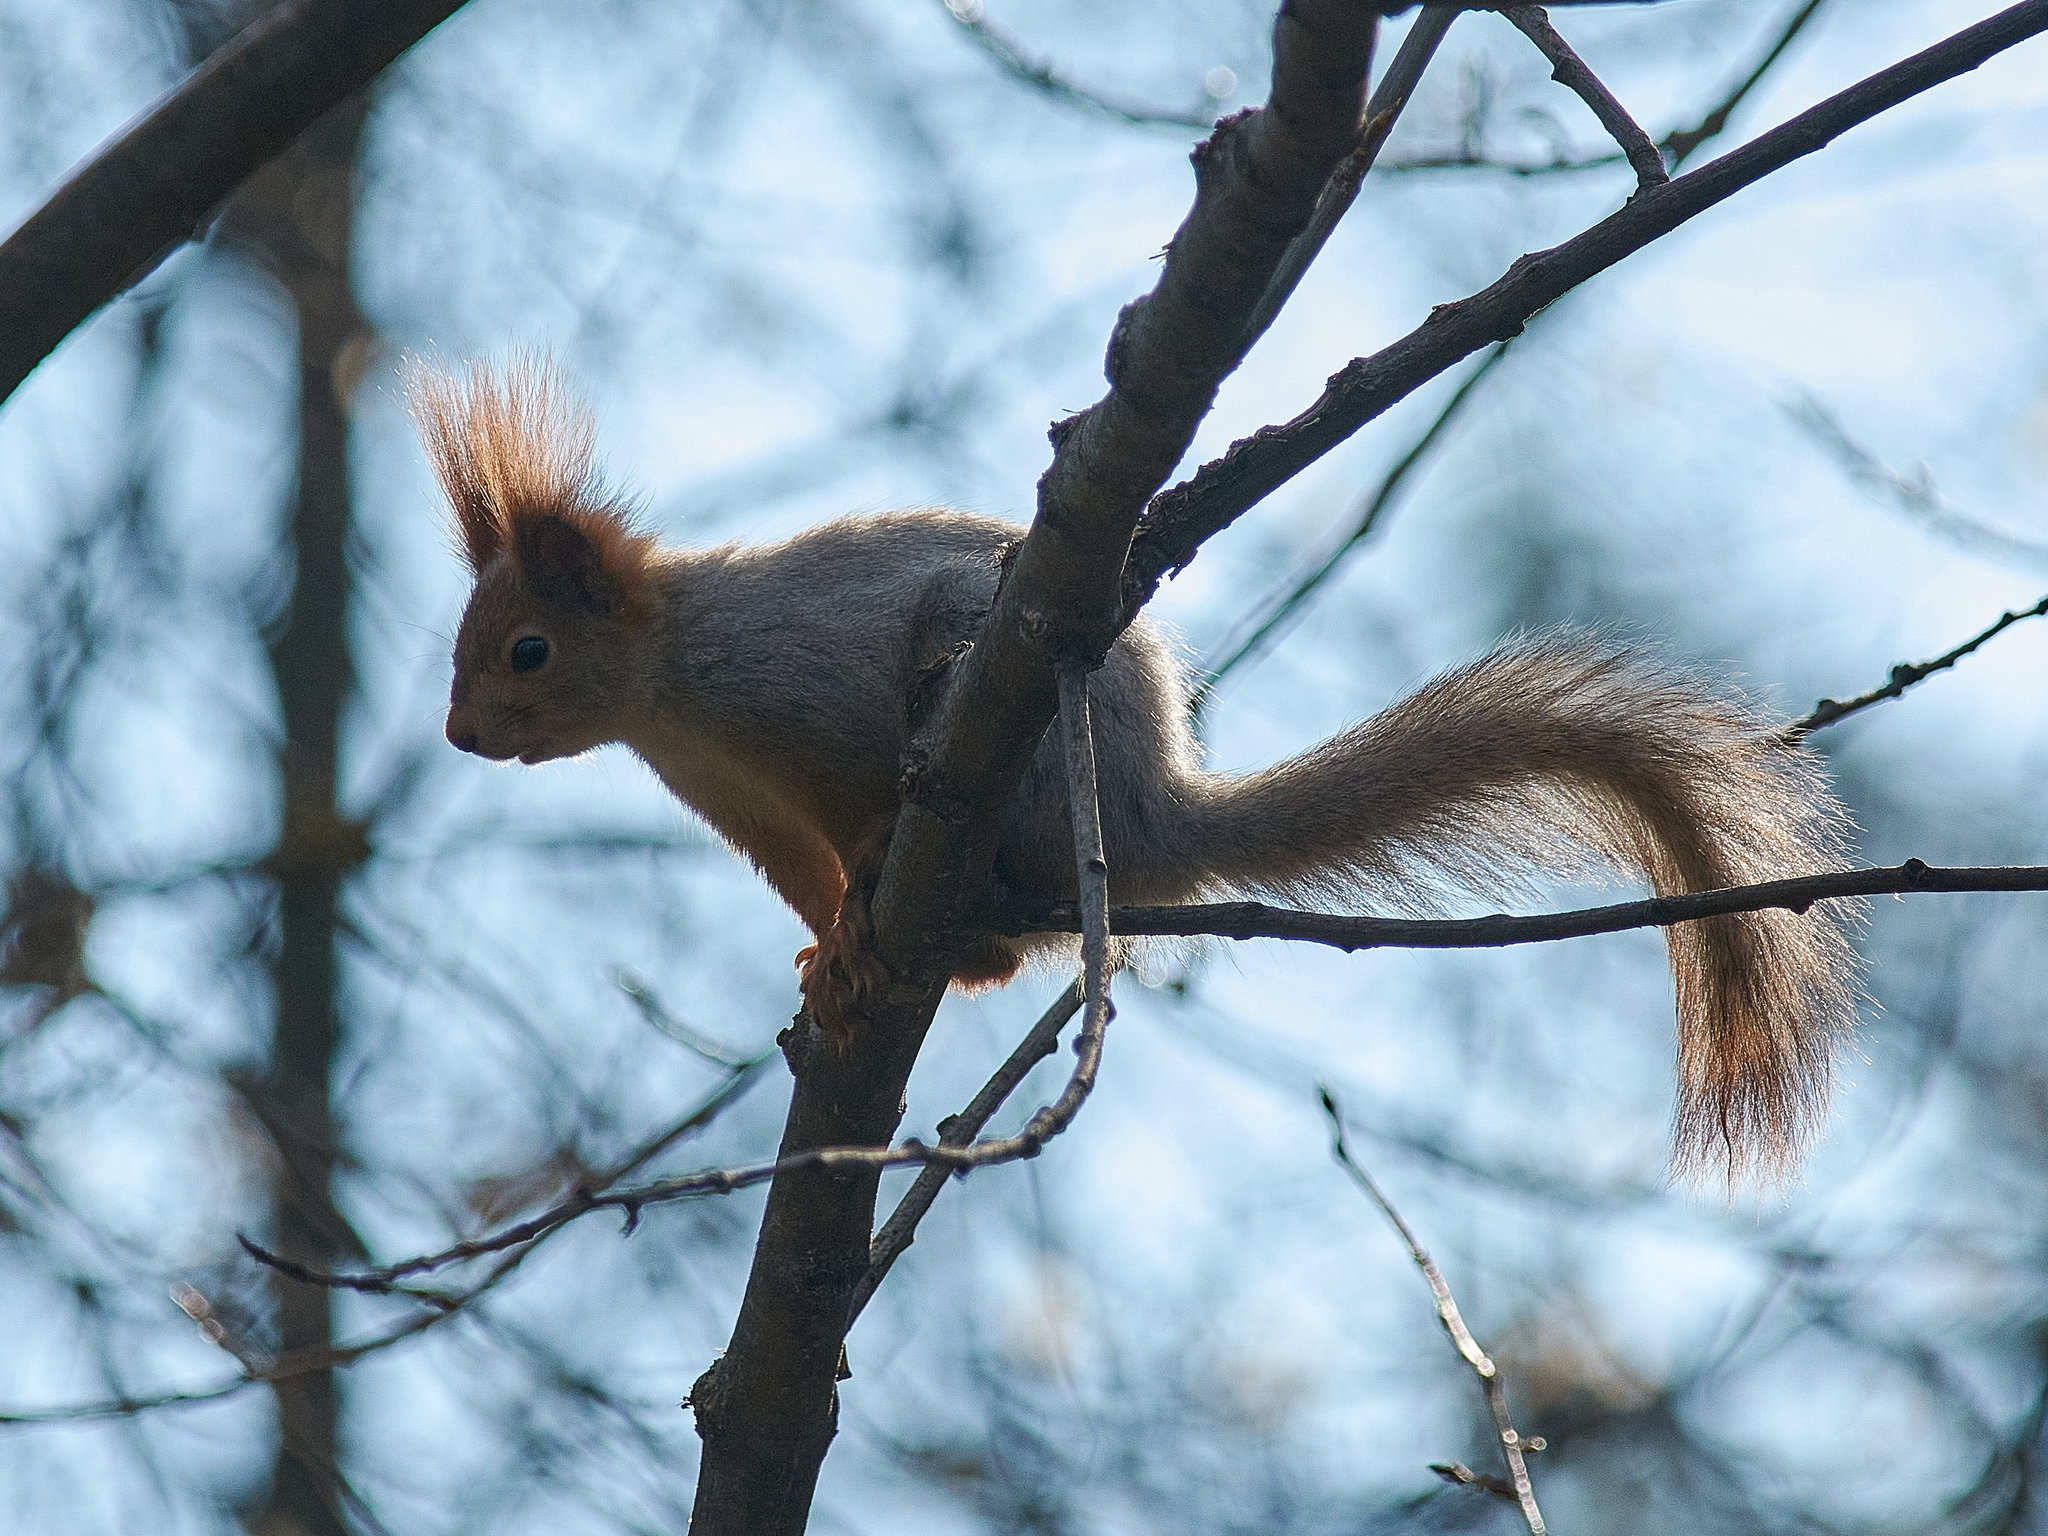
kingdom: Animalia
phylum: Chordata
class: Mammalia
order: Rodentia
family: Sciuridae
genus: Sciurus
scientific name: Sciurus vulgaris
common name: Eurasian red squirrel
